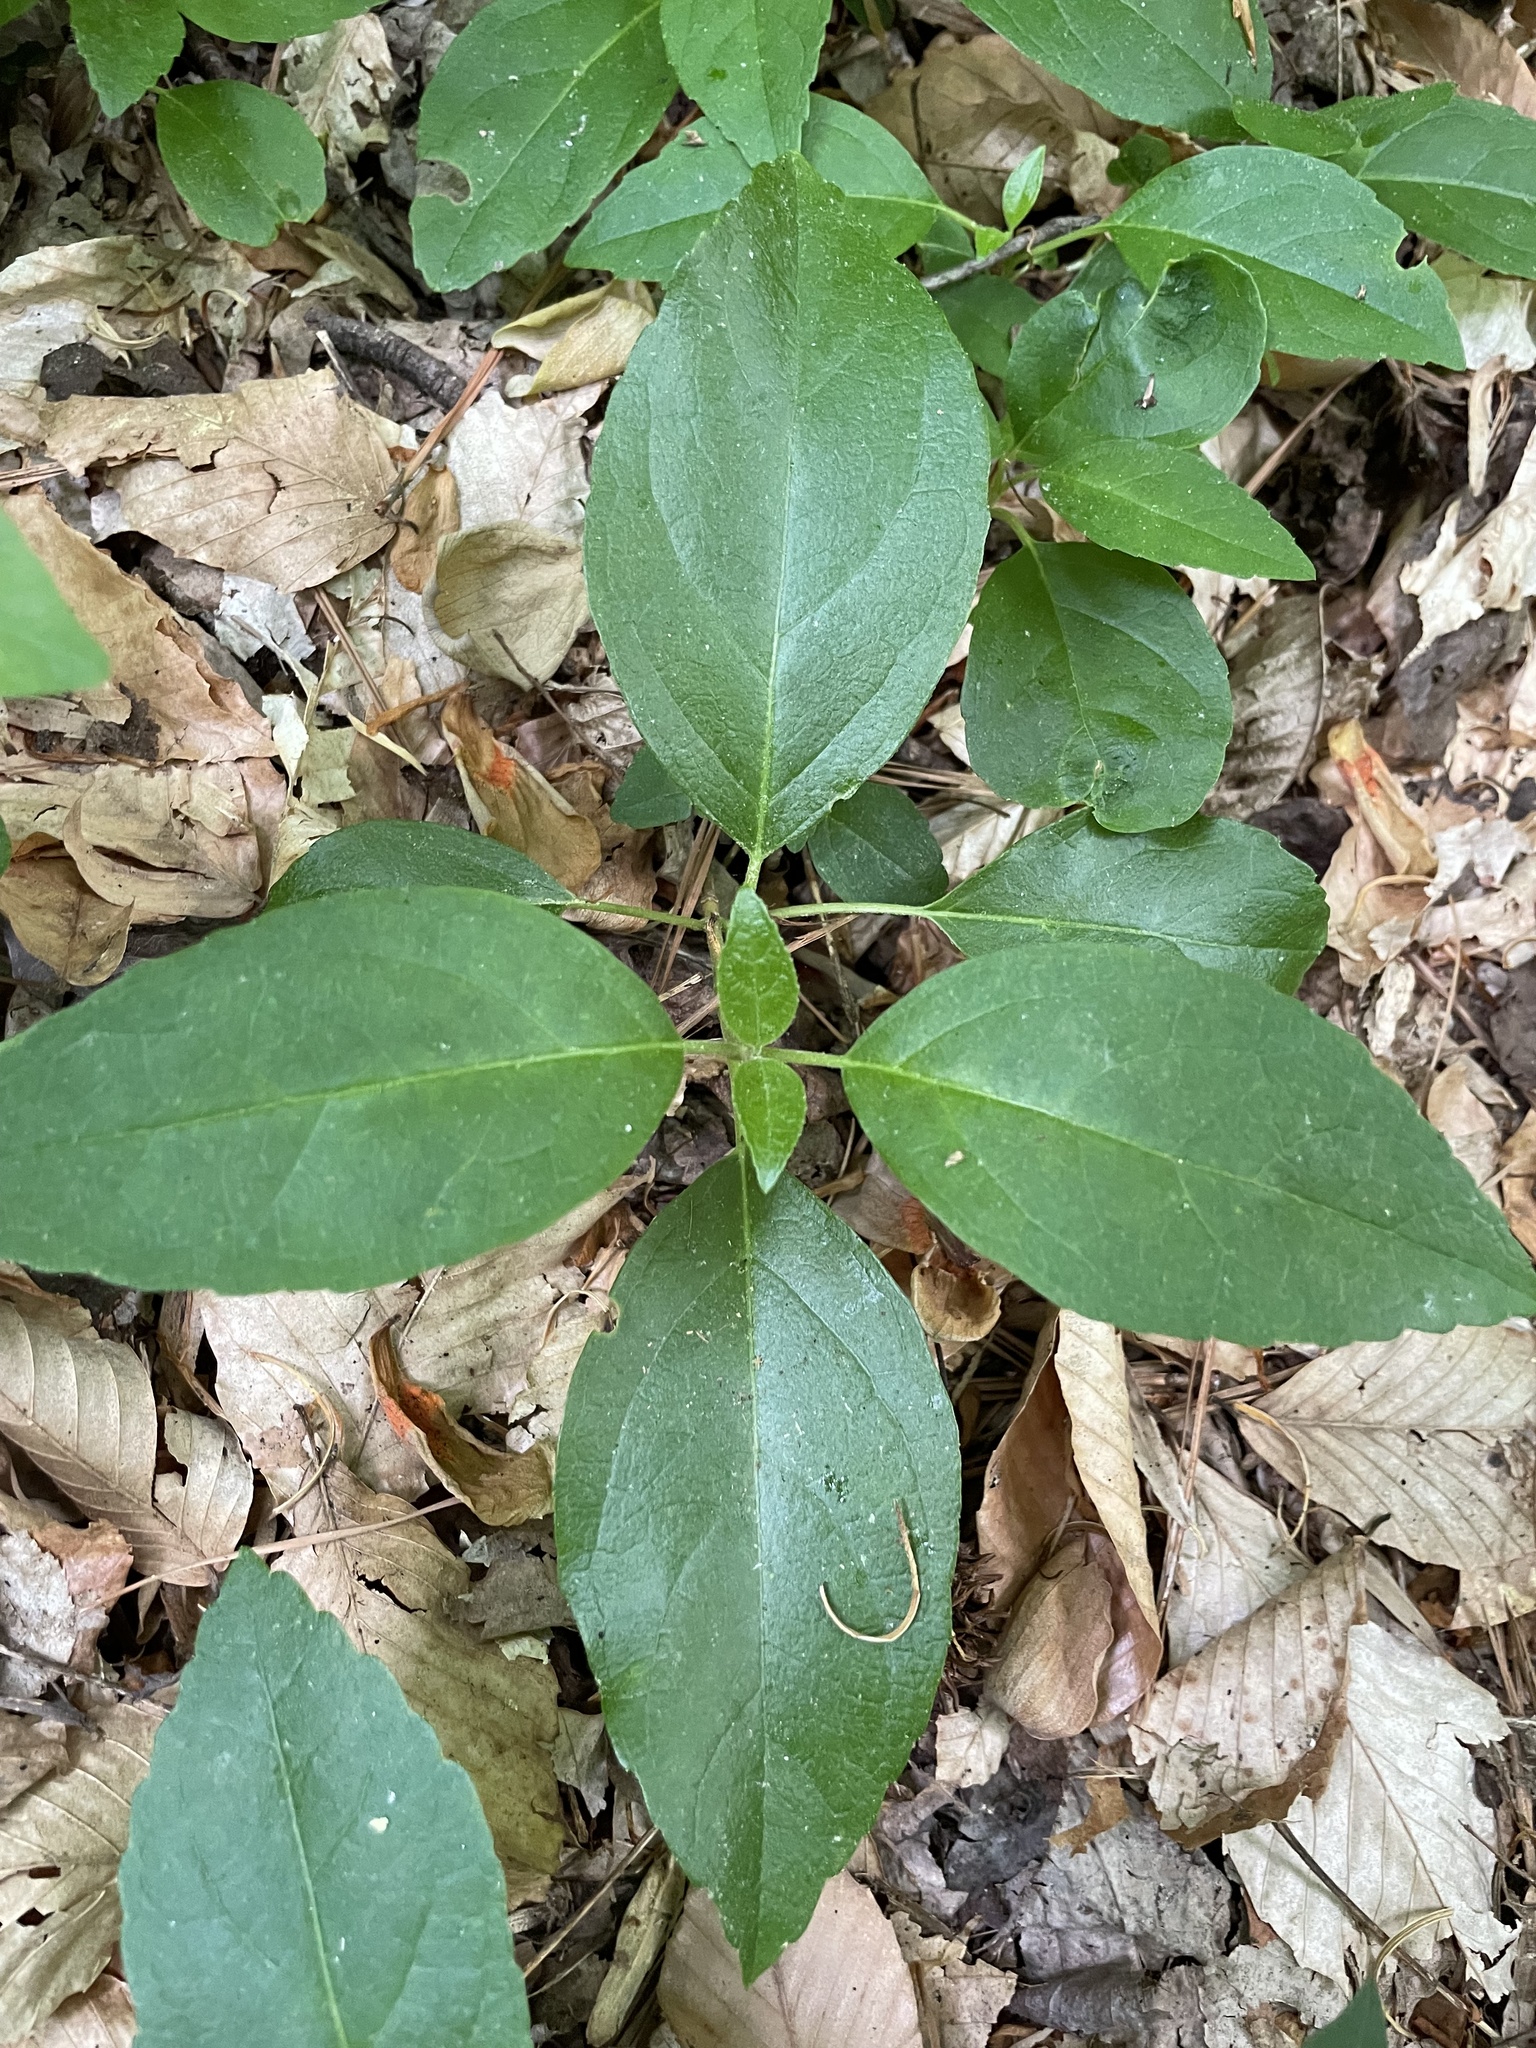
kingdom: Plantae
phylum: Tracheophyta
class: Magnoliopsida
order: Cornales
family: Hydrangeaceae
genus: Hydrangea
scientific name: Hydrangea barbara
